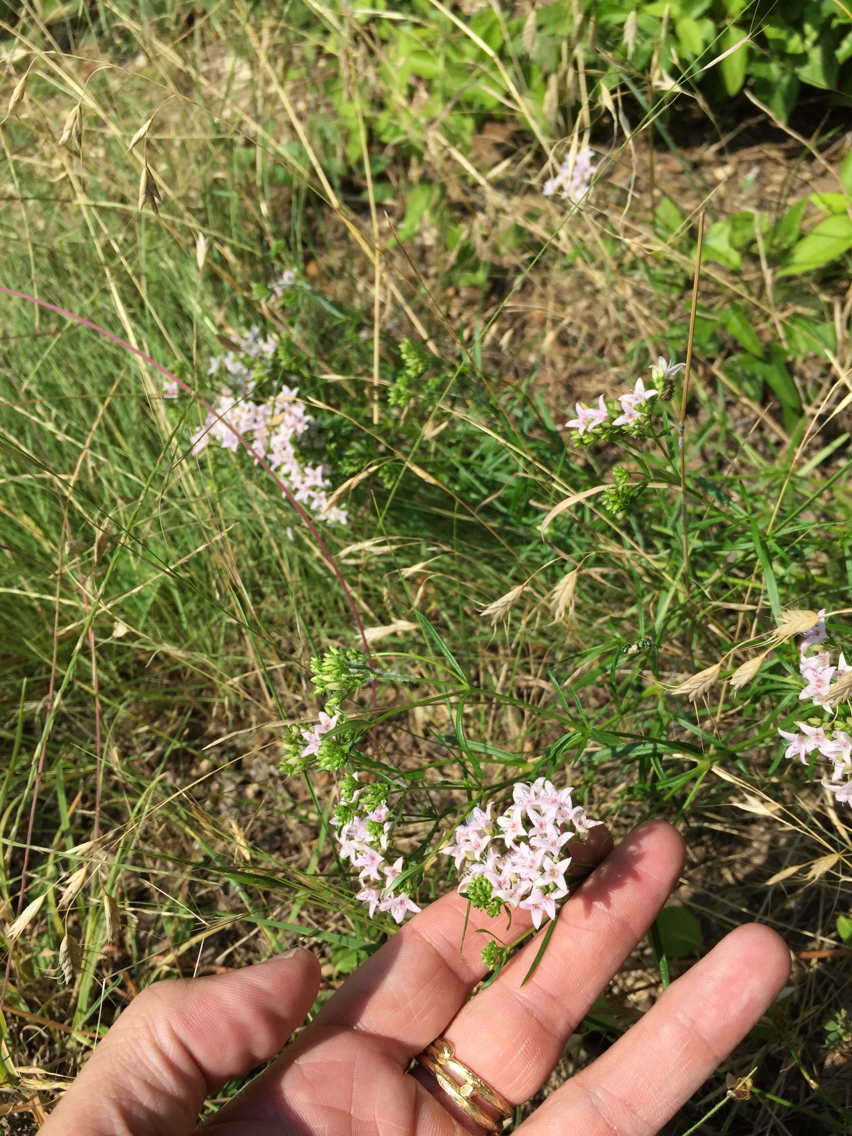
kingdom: Plantae
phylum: Tracheophyta
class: Magnoliopsida
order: Gentianales
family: Rubiaceae
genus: Stenaria
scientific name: Stenaria nigricans
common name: Diamondflowers
